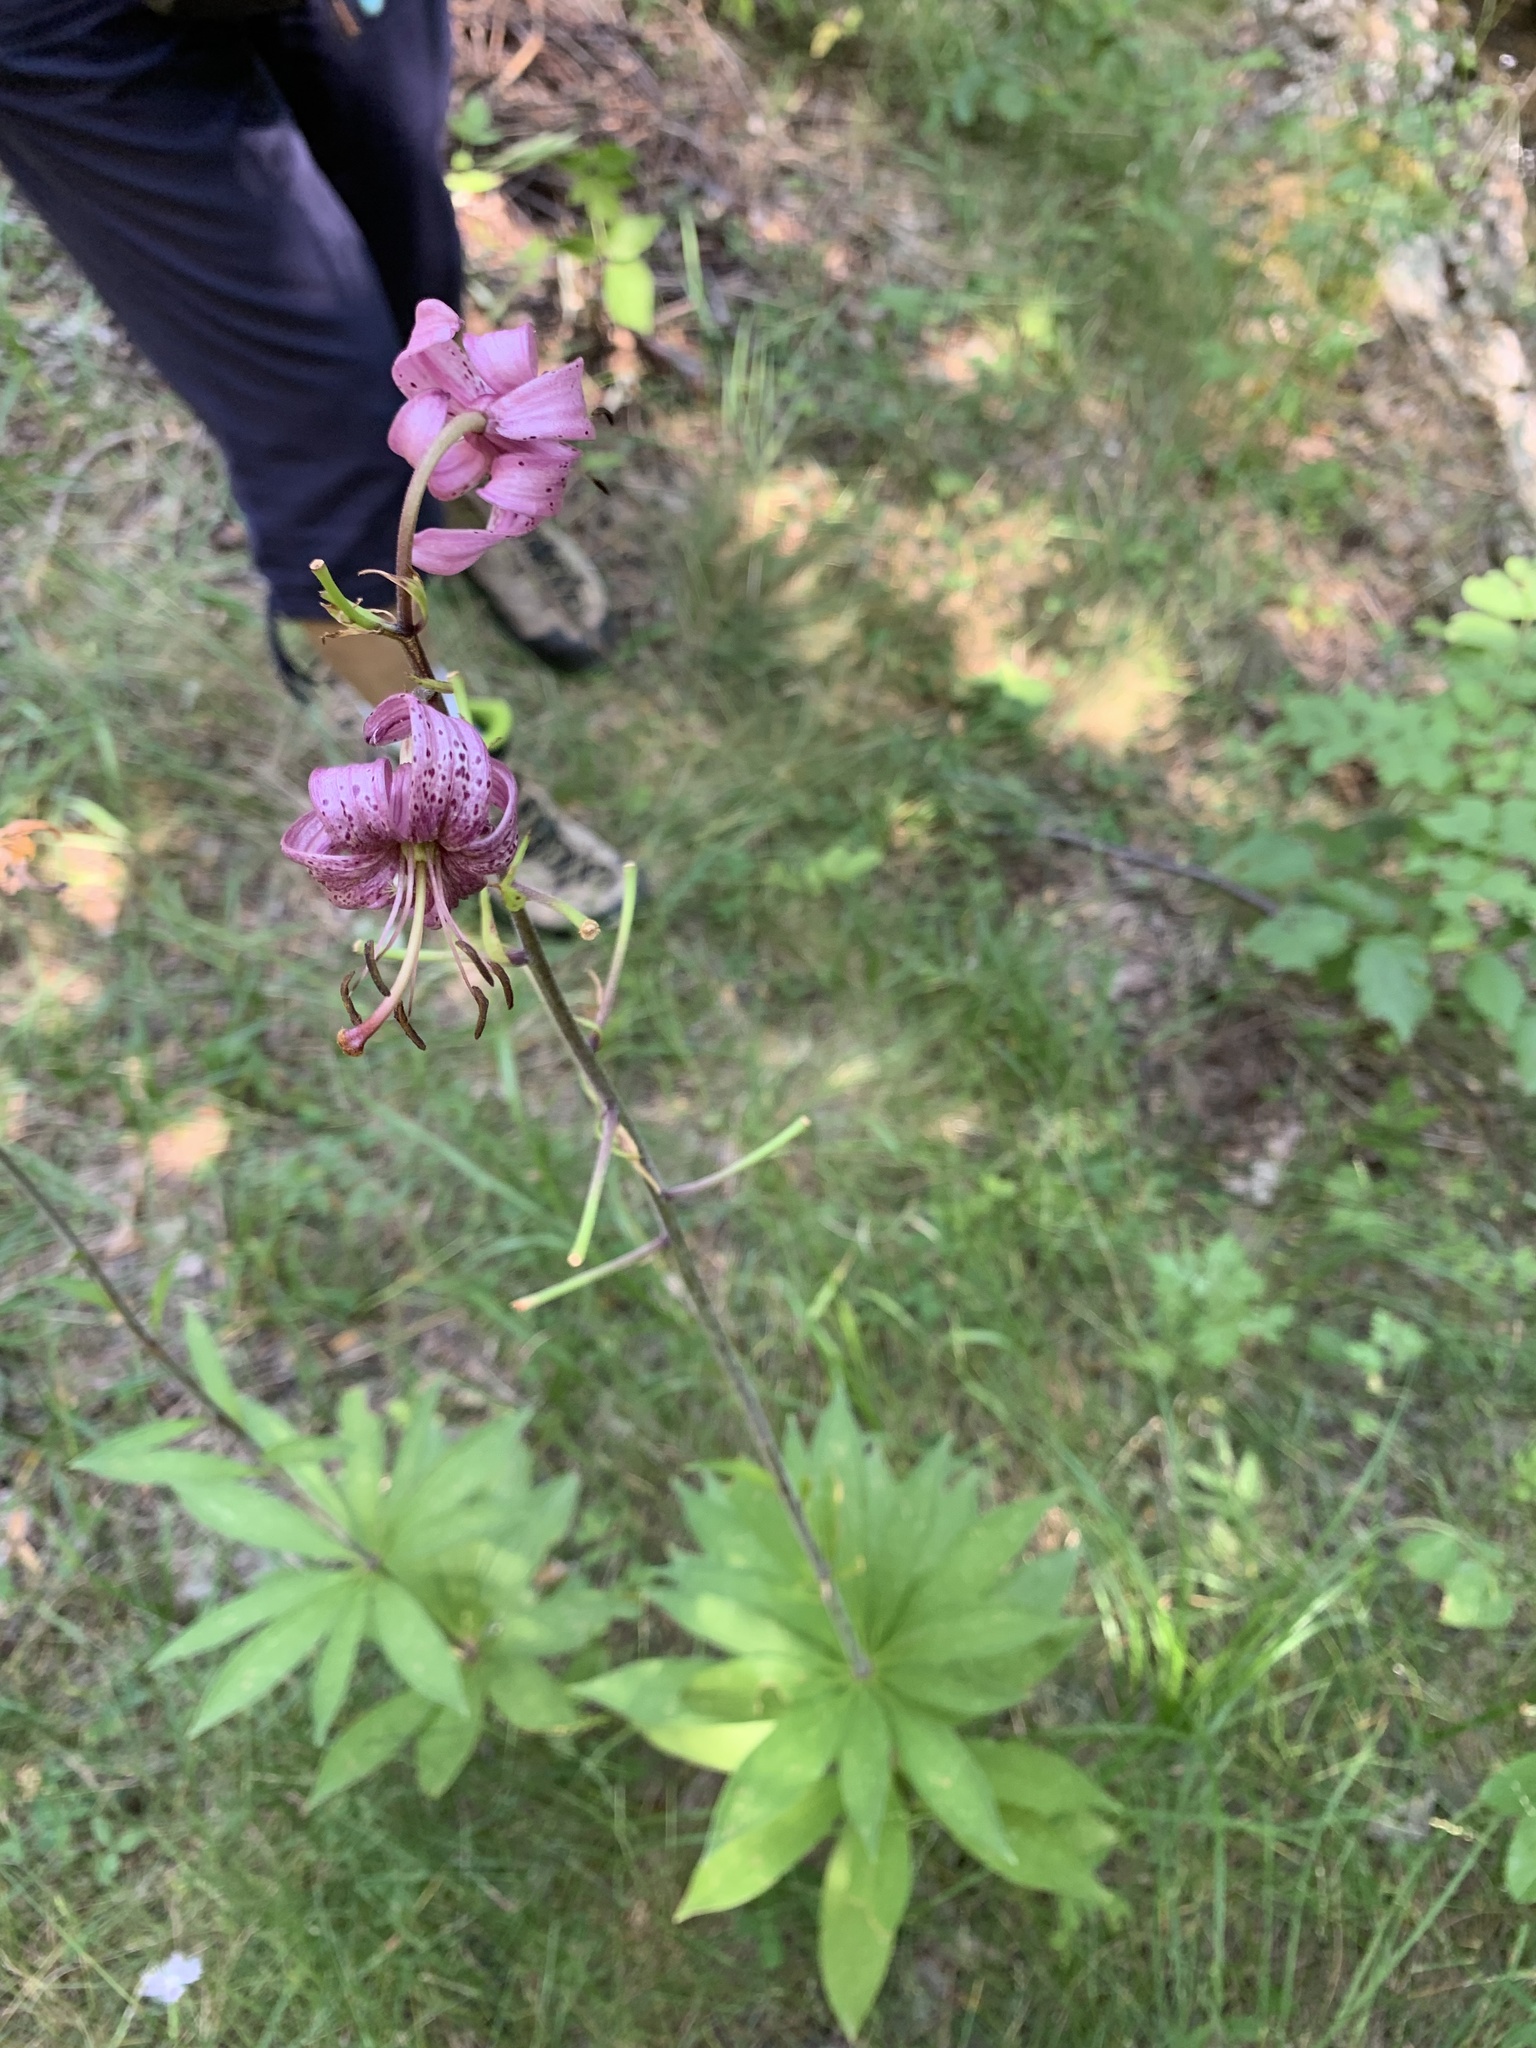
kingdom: Plantae
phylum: Tracheophyta
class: Liliopsida
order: Liliales
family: Liliaceae
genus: Lilium
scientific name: Lilium martagon
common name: Martagon lily
